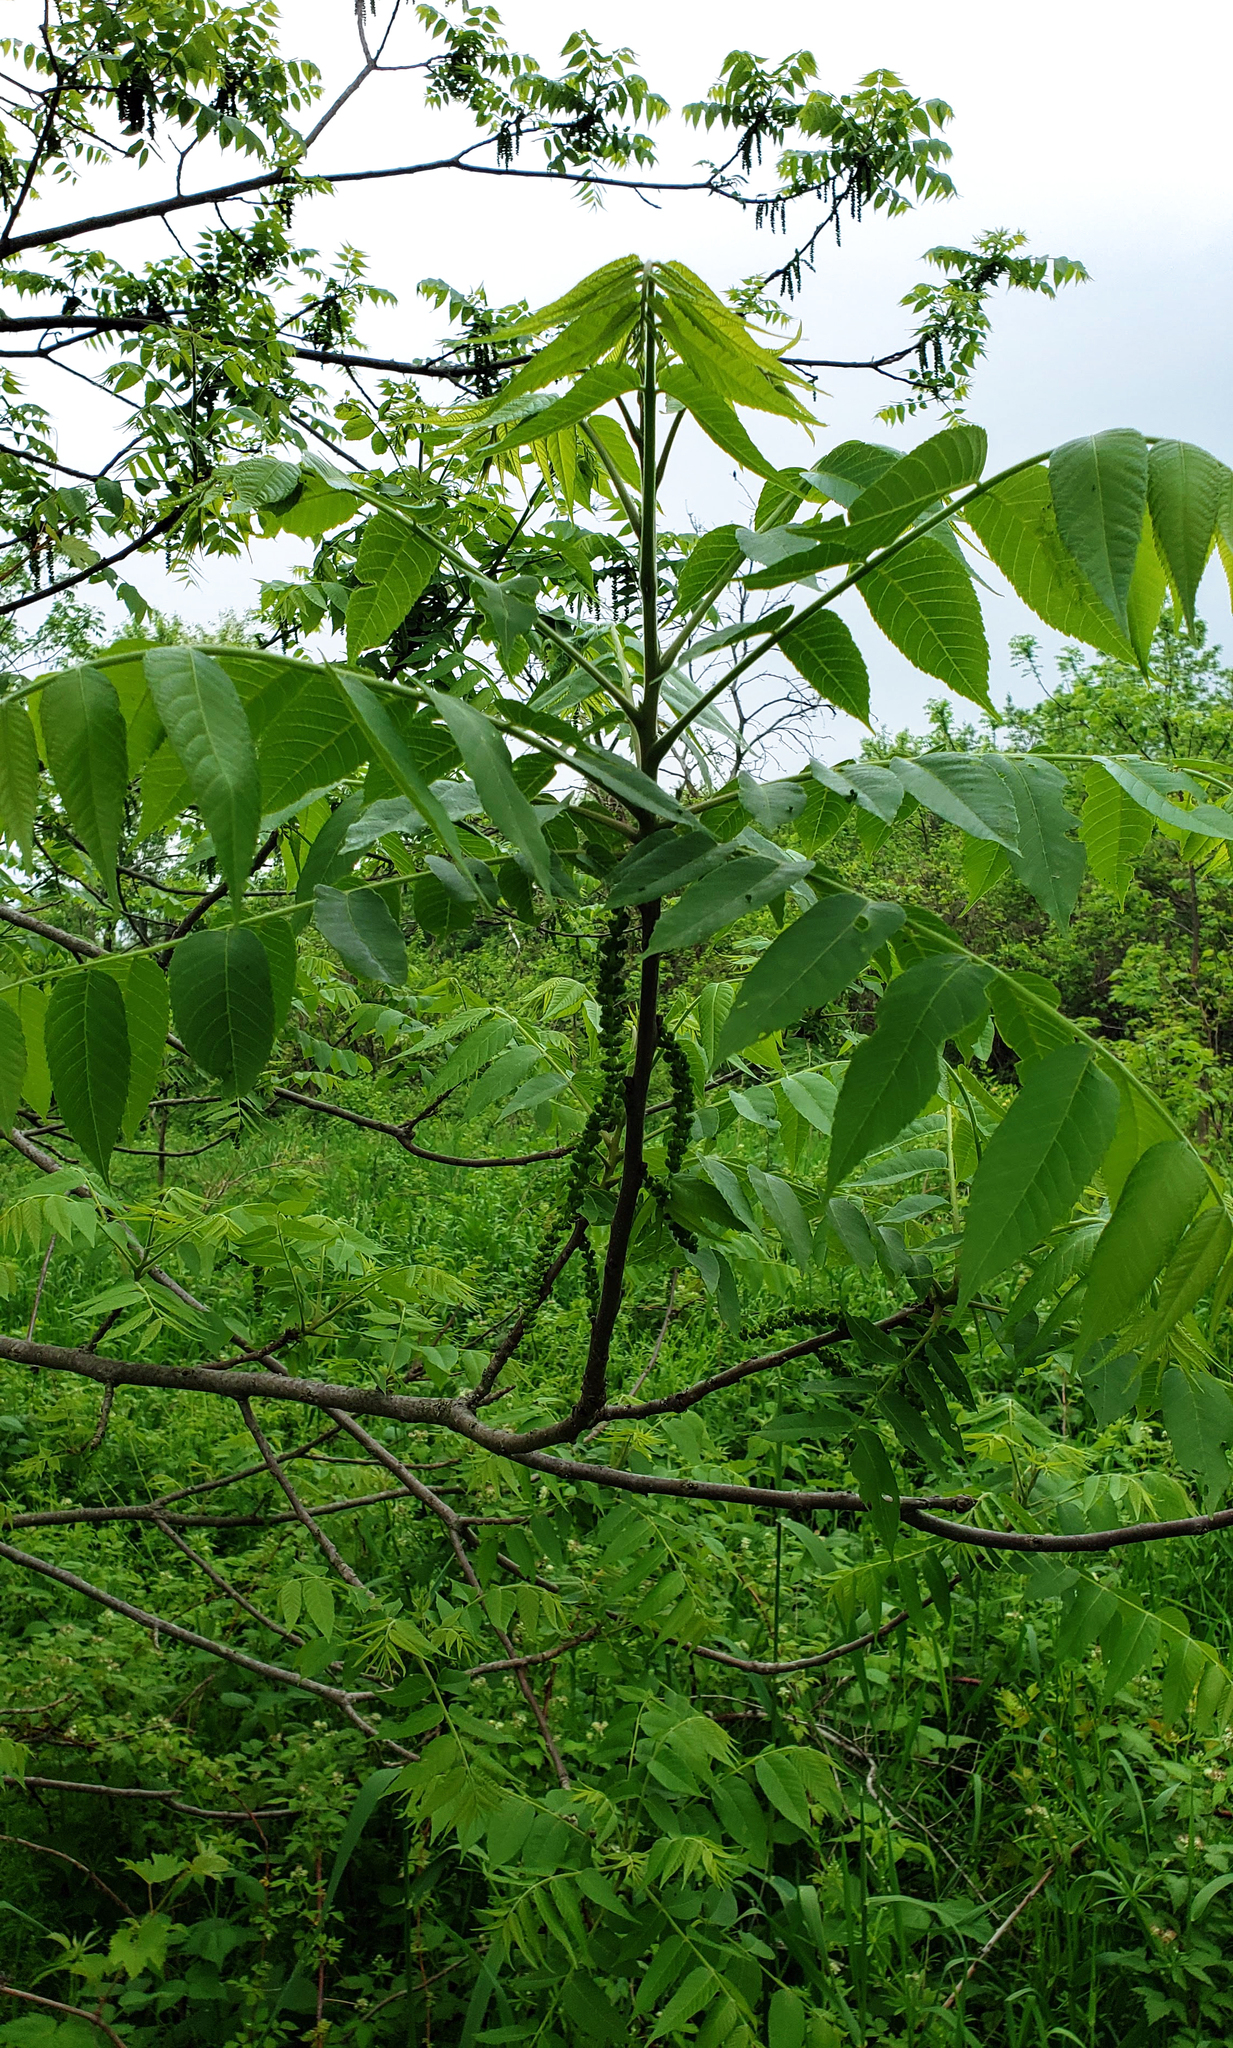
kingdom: Plantae
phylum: Tracheophyta
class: Magnoliopsida
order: Fagales
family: Juglandaceae
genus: Juglans
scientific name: Juglans nigra
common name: Black walnut
